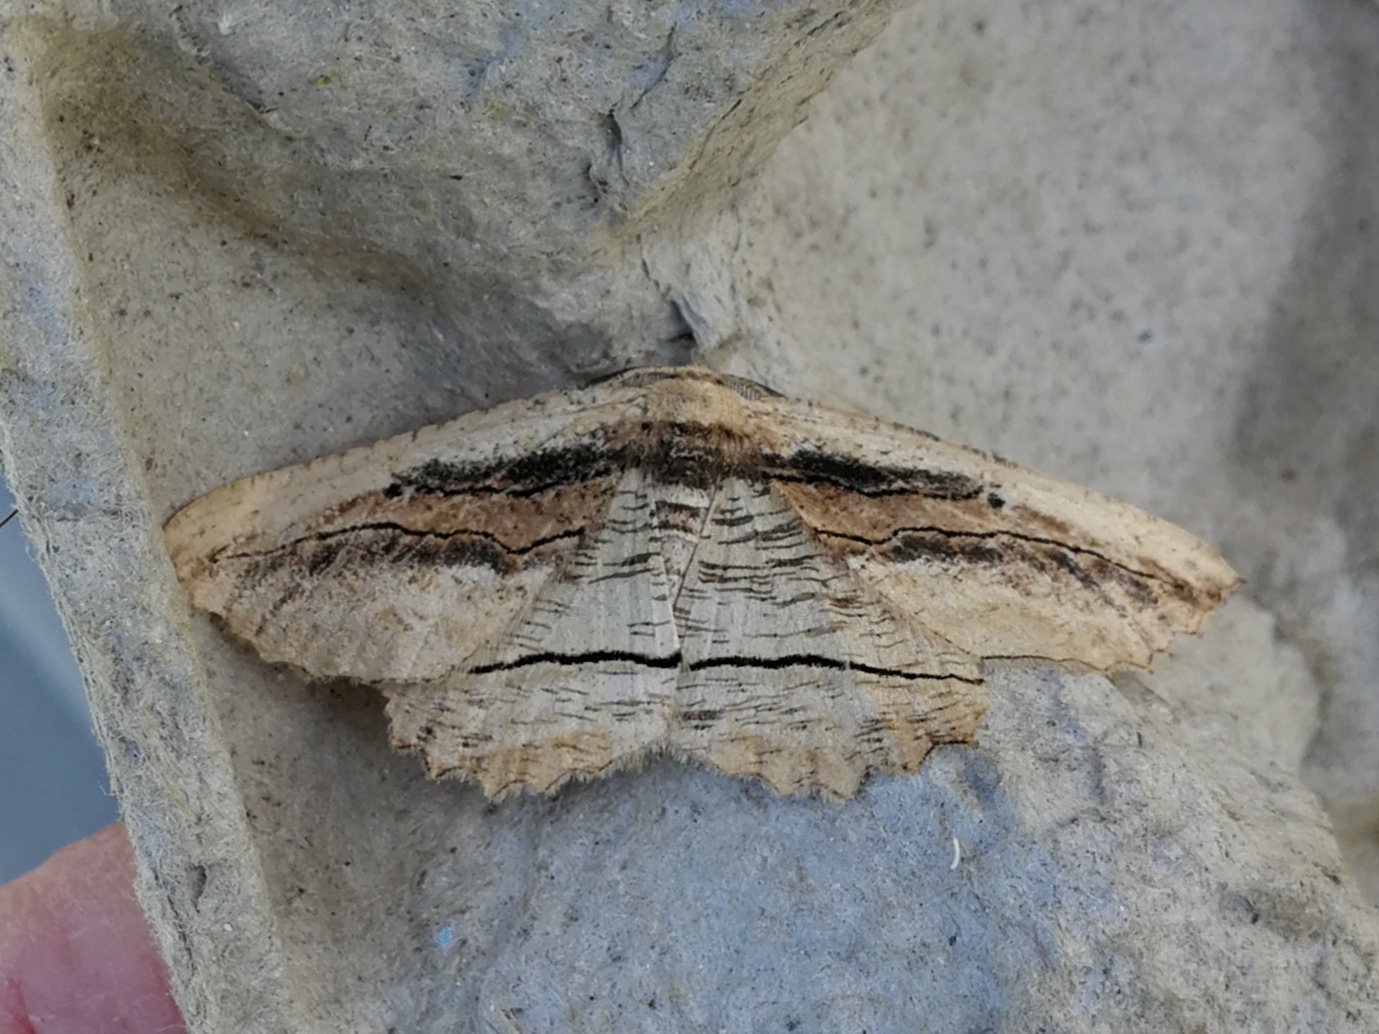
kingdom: Animalia
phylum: Arthropoda
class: Insecta
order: Lepidoptera
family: Geometridae
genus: Menophra
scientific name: Menophra nycthemeraria
